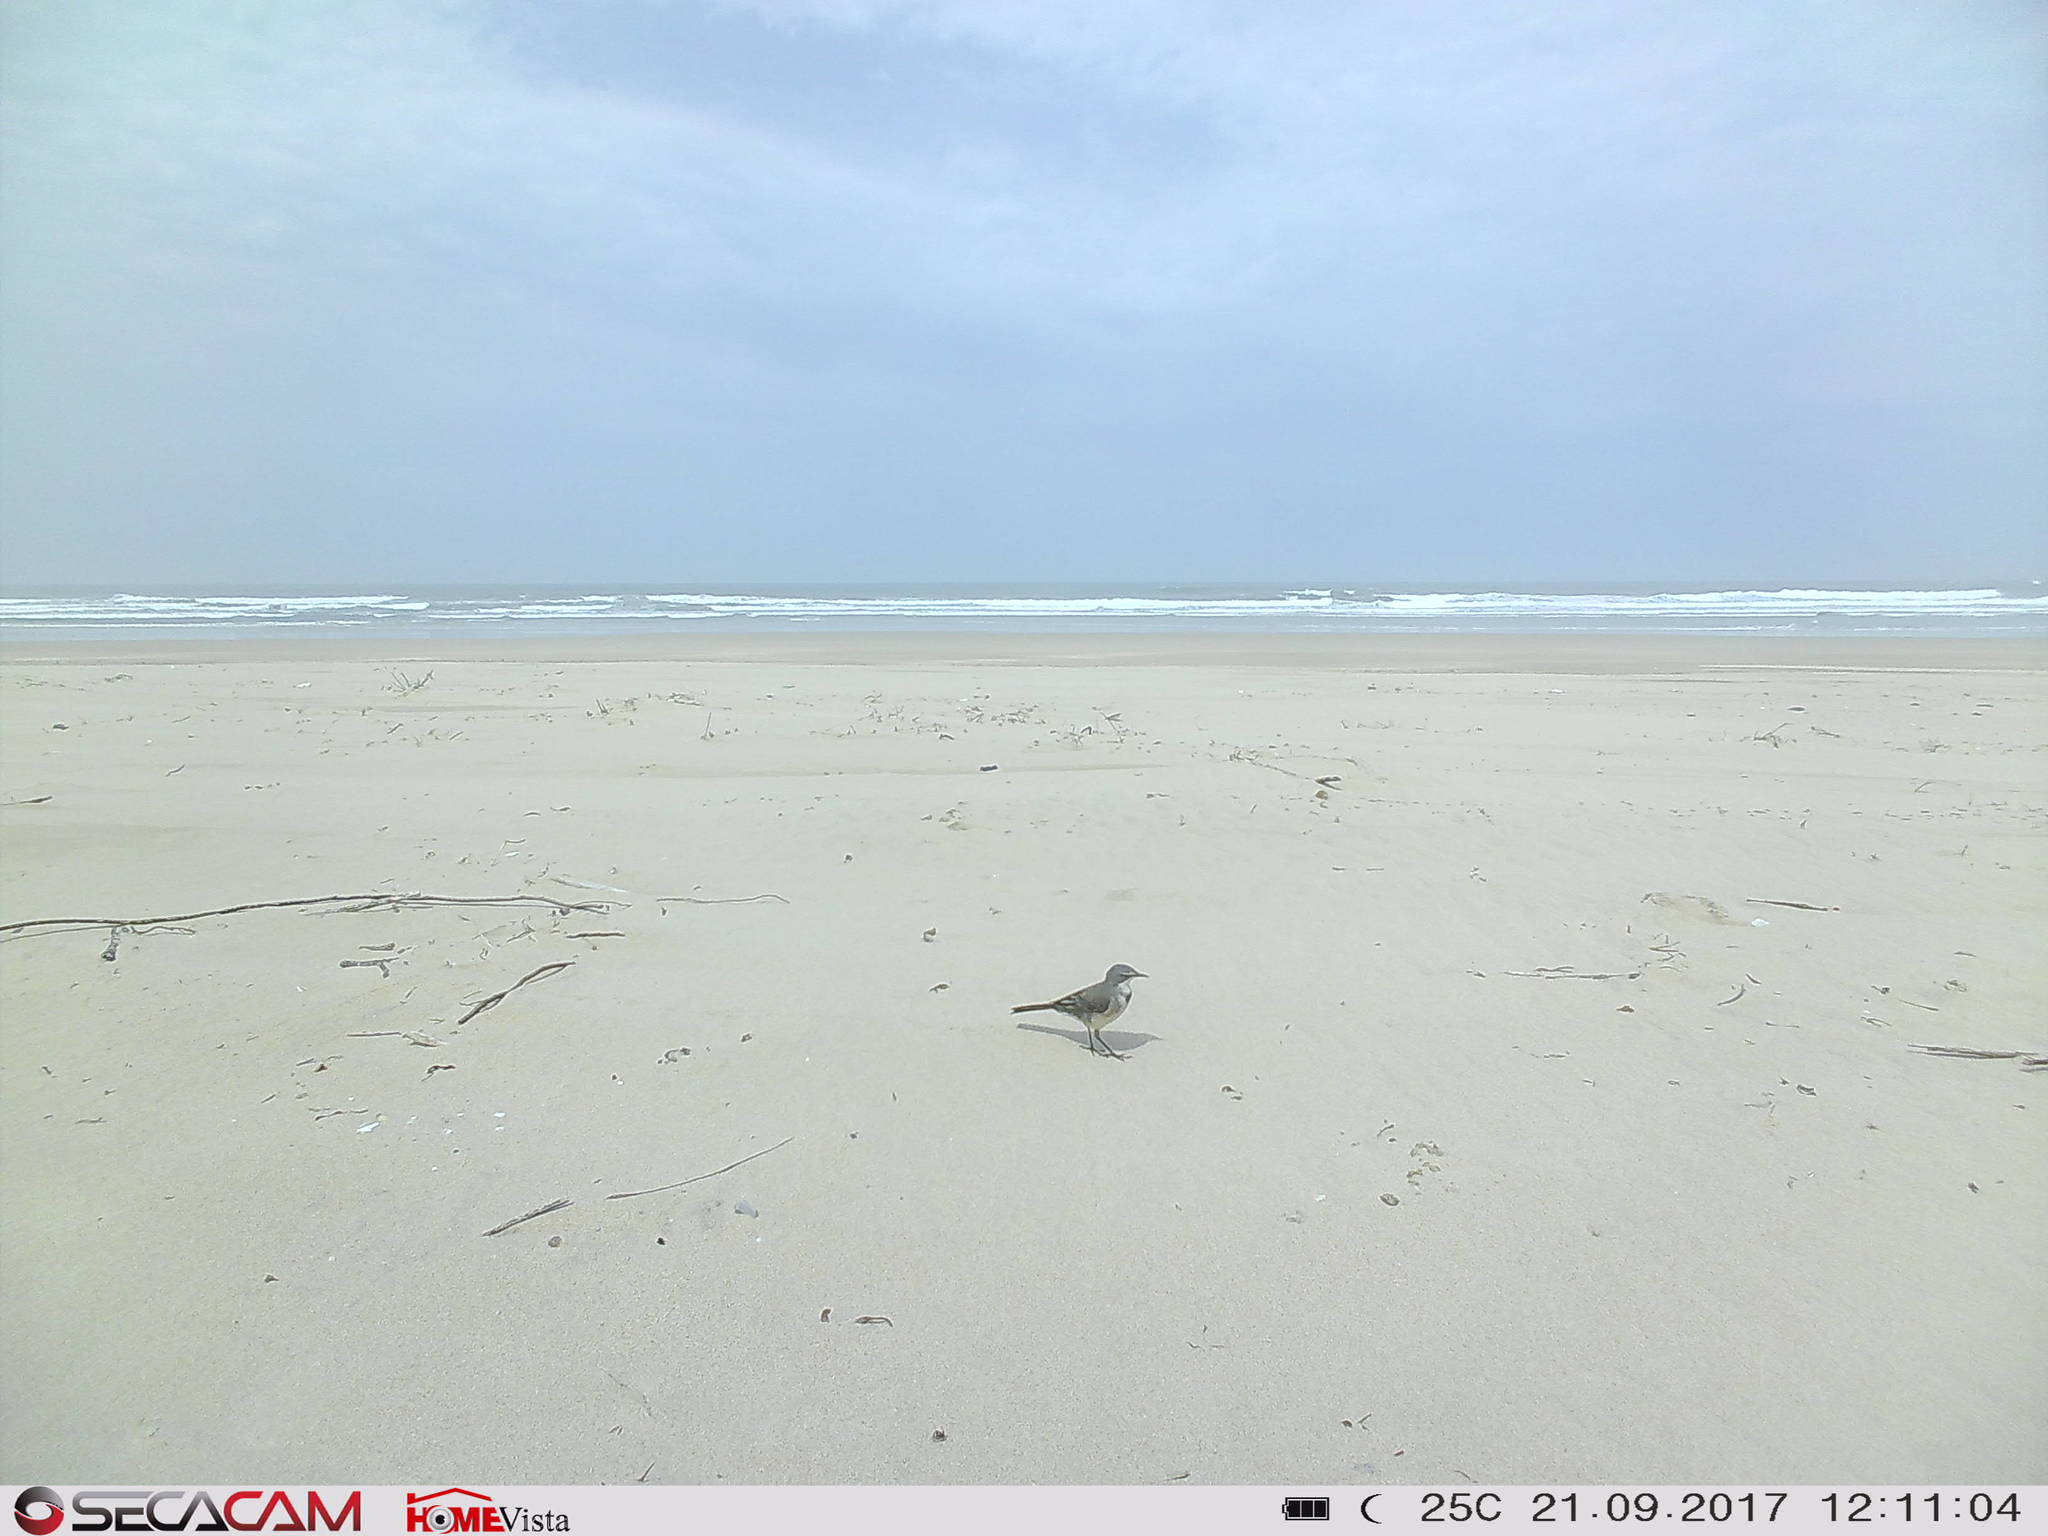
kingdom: Animalia
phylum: Chordata
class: Aves
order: Passeriformes
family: Motacillidae
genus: Motacilla
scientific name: Motacilla capensis
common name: Cape wagtail
